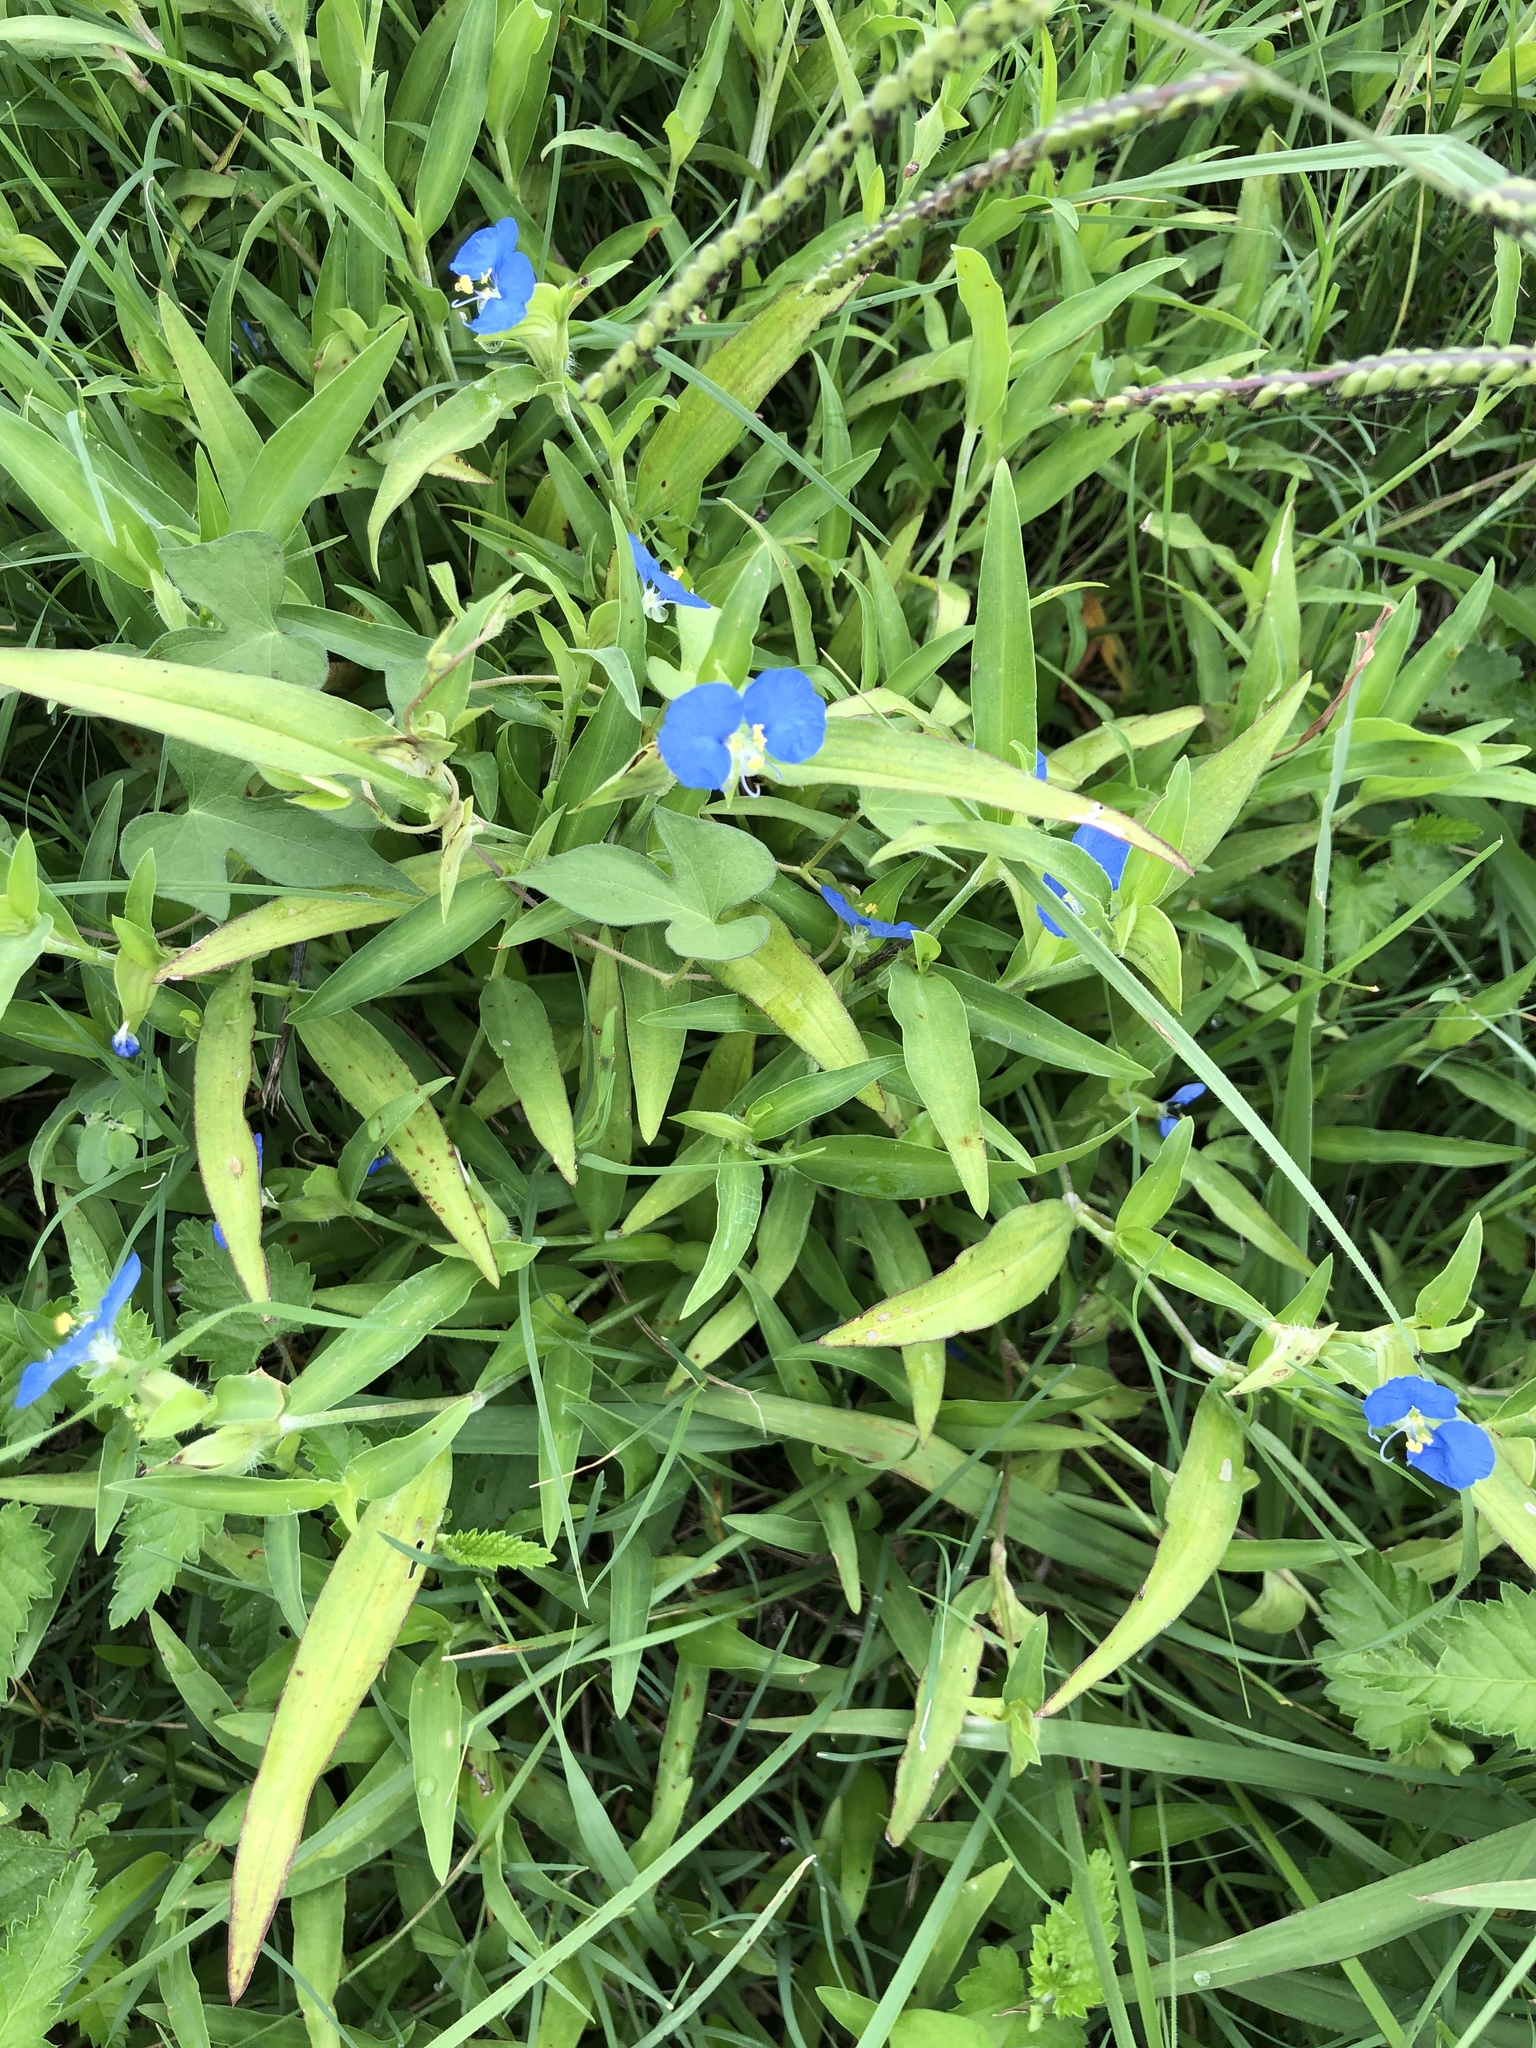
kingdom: Plantae
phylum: Tracheophyta
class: Liliopsida
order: Commelinales
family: Commelinaceae
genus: Commelina
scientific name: Commelina erecta
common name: Blousel blommetjie
